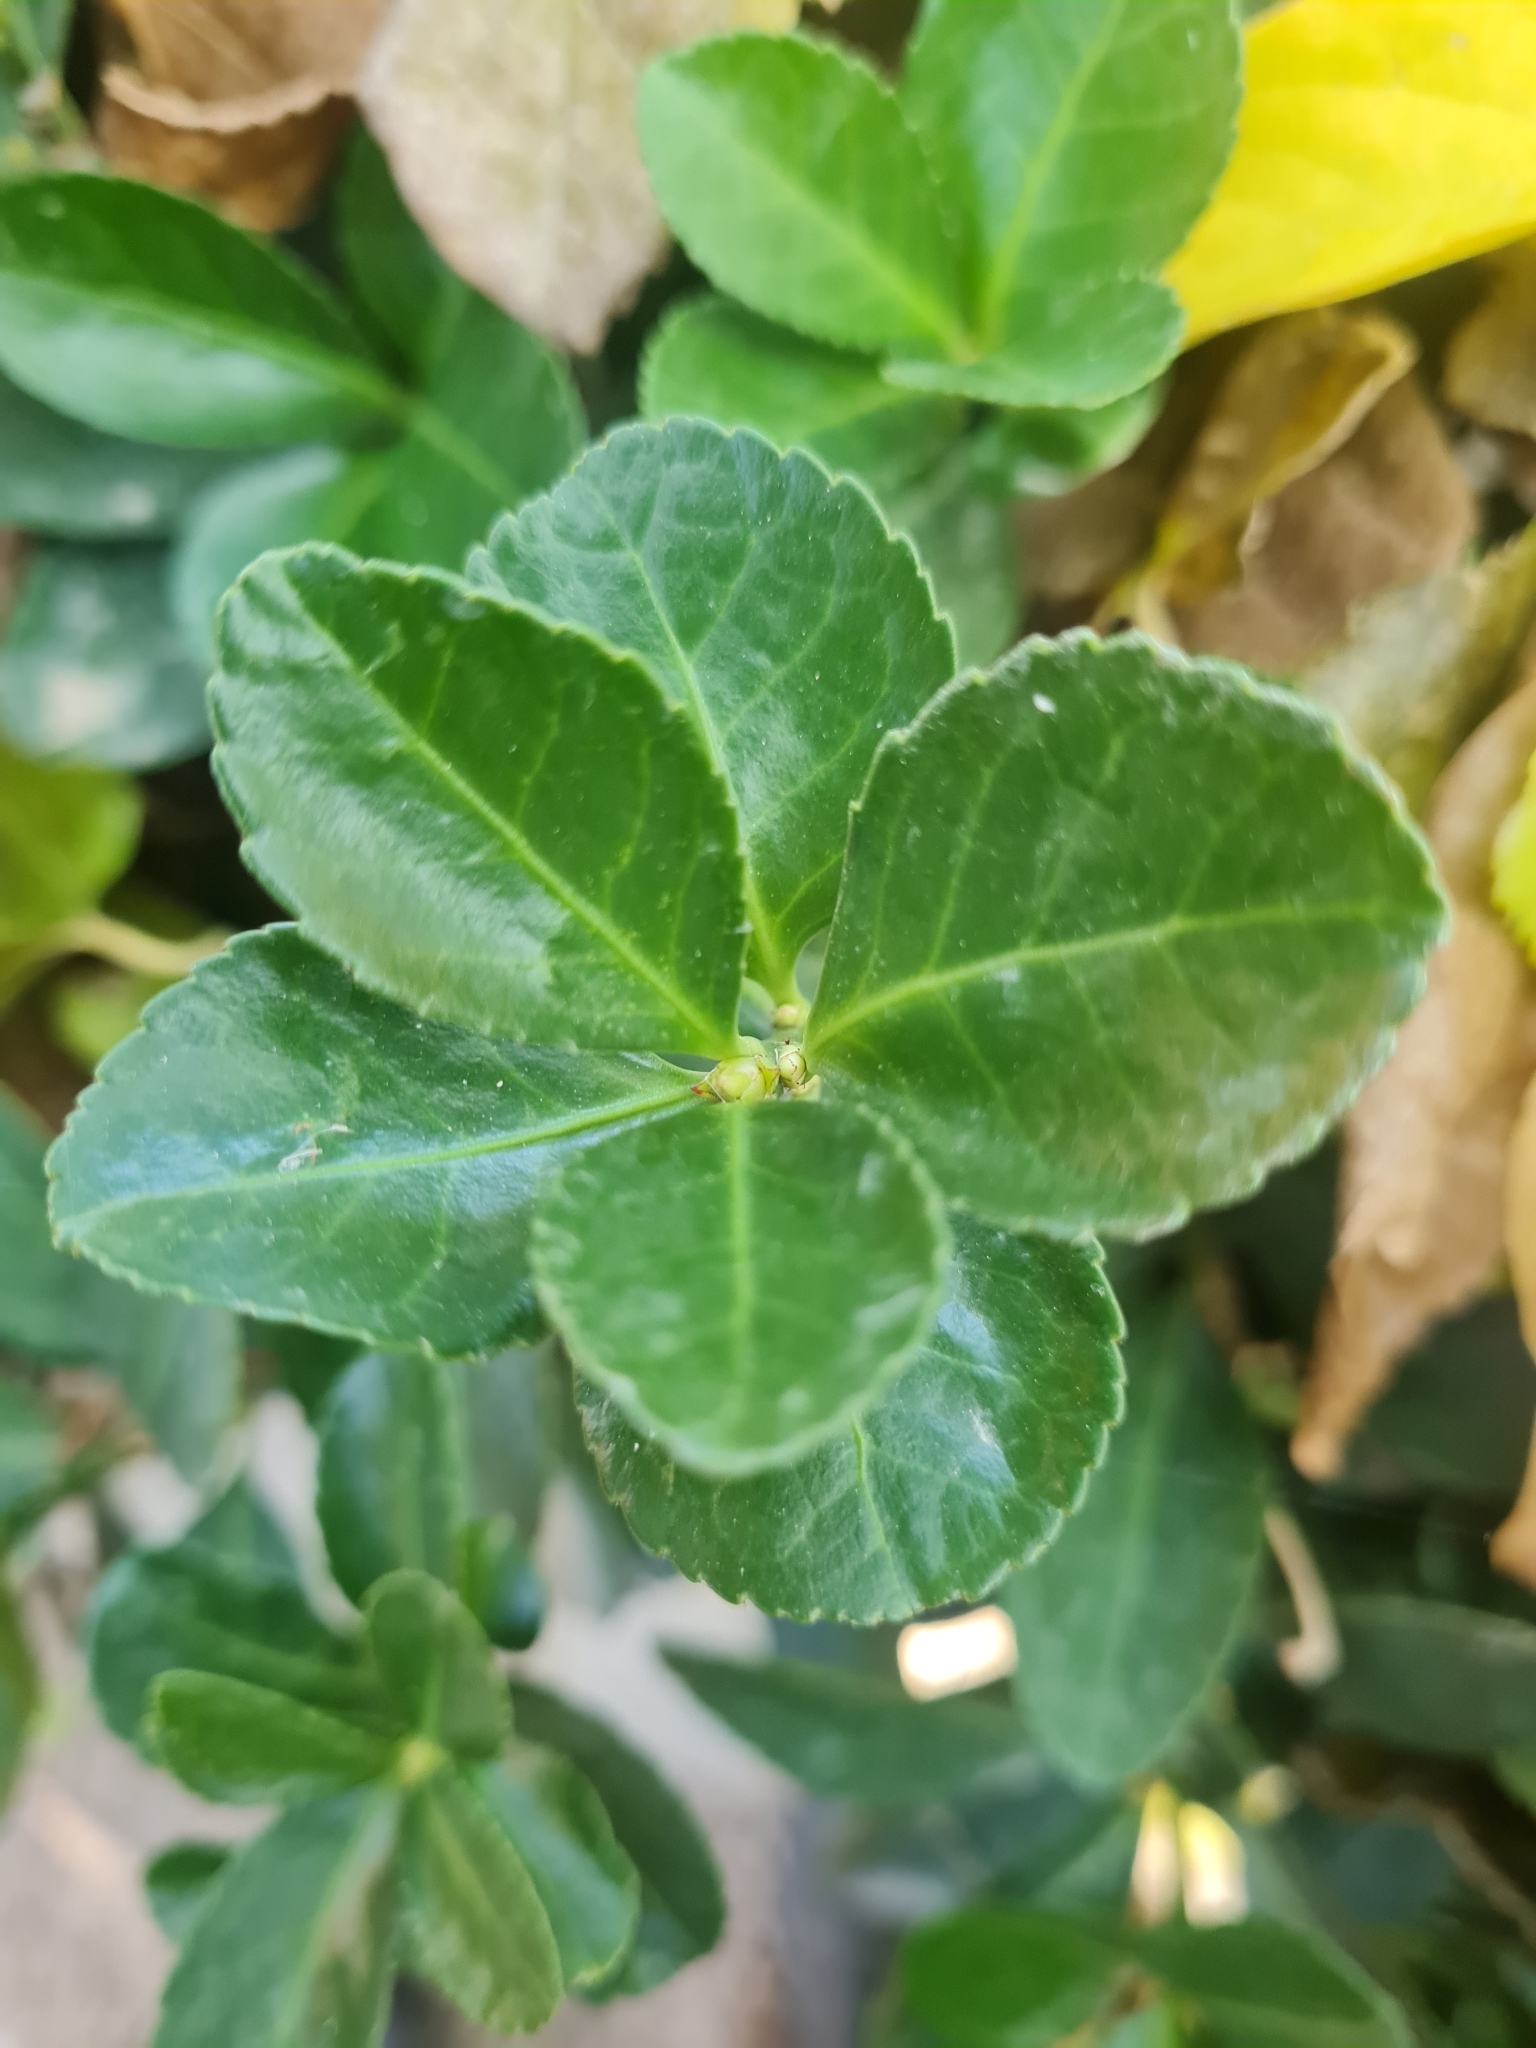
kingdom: Plantae
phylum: Tracheophyta
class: Magnoliopsida
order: Celastrales
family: Celastraceae
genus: Euonymus
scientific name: Euonymus japonicus
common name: Japanese spindletree
